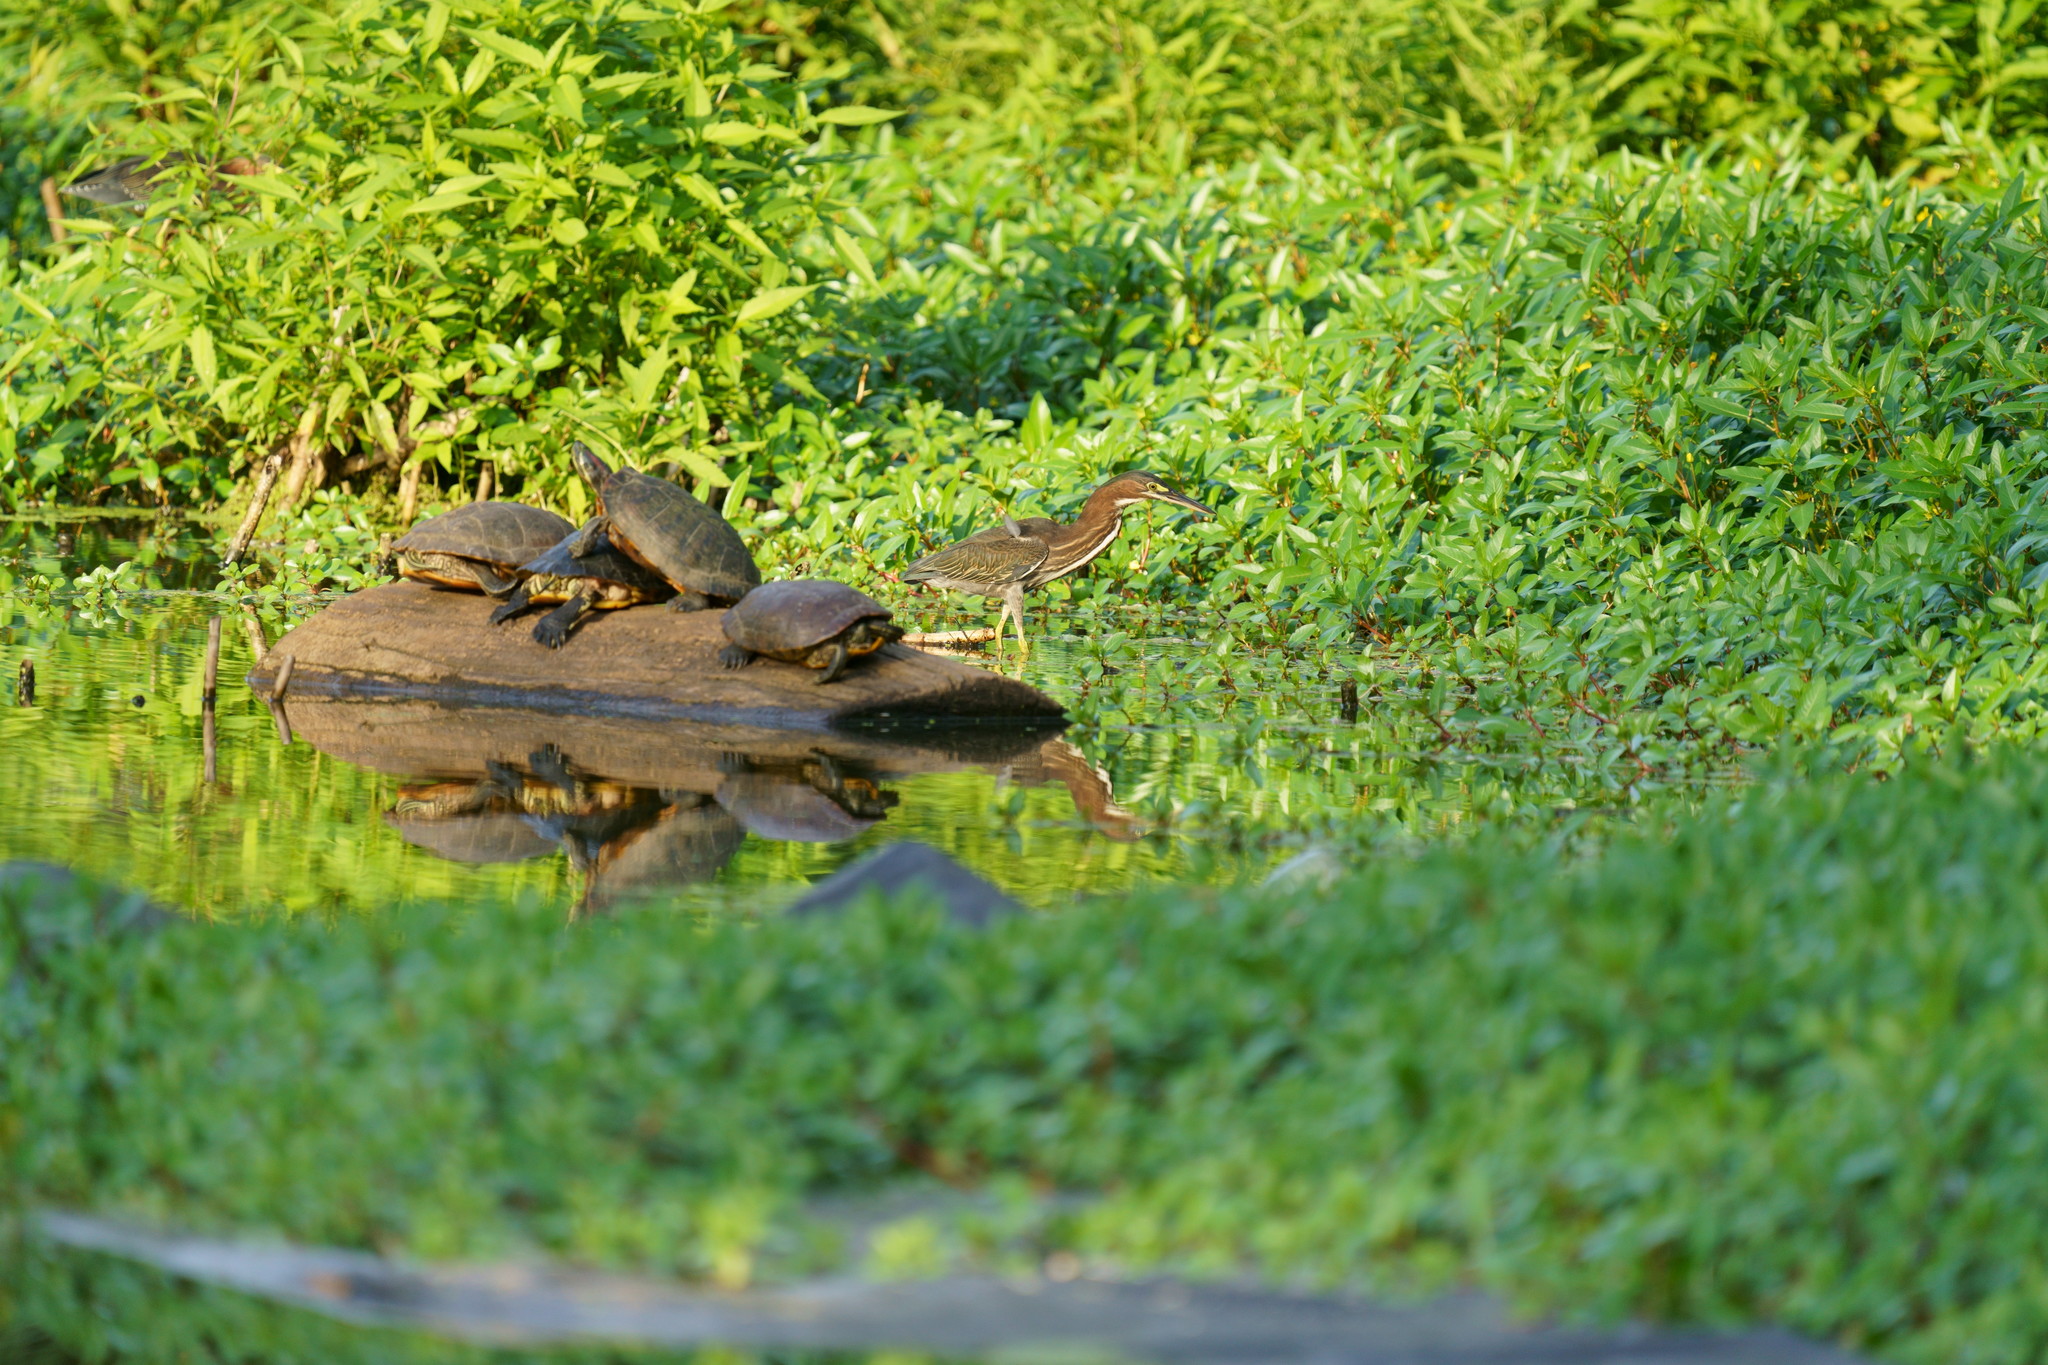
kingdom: Animalia
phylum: Chordata
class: Aves
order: Pelecaniformes
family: Ardeidae
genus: Butorides
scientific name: Butorides virescens
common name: Green heron
